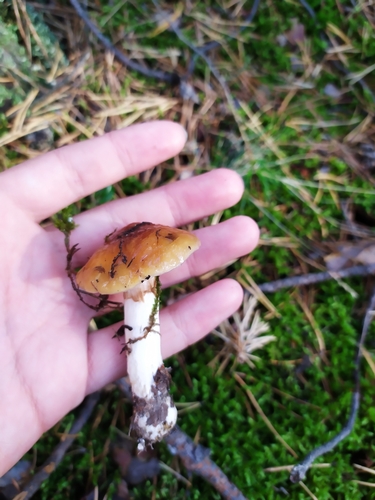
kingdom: Fungi
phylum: Basidiomycota
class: Agaricomycetes
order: Agaricales
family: Cortinariaceae
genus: Cortinarius
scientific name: Cortinarius
